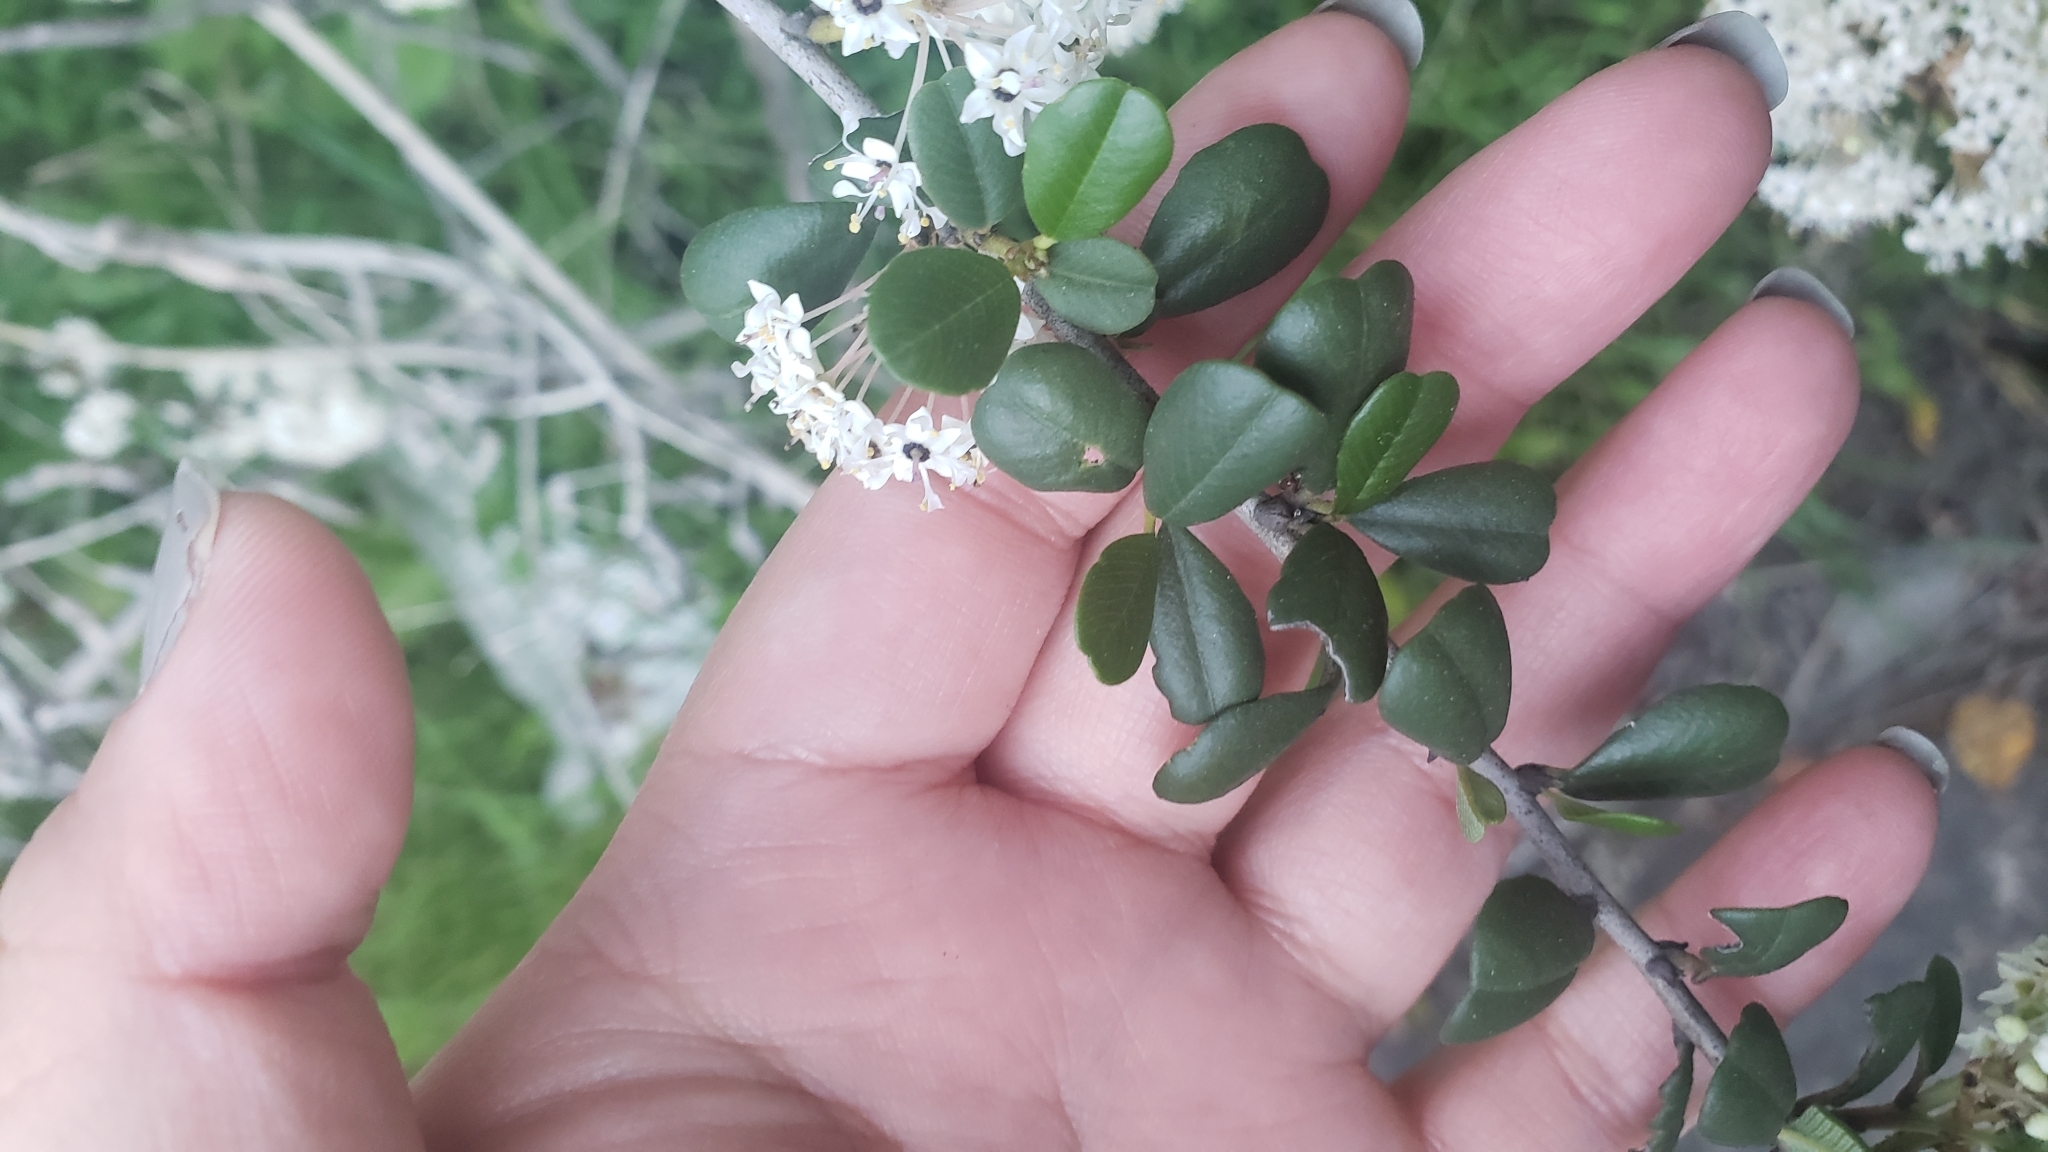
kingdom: Plantae
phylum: Tracheophyta
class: Magnoliopsida
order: Rosales
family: Rhamnaceae
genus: Ceanothus
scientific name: Ceanothus verrucosus
